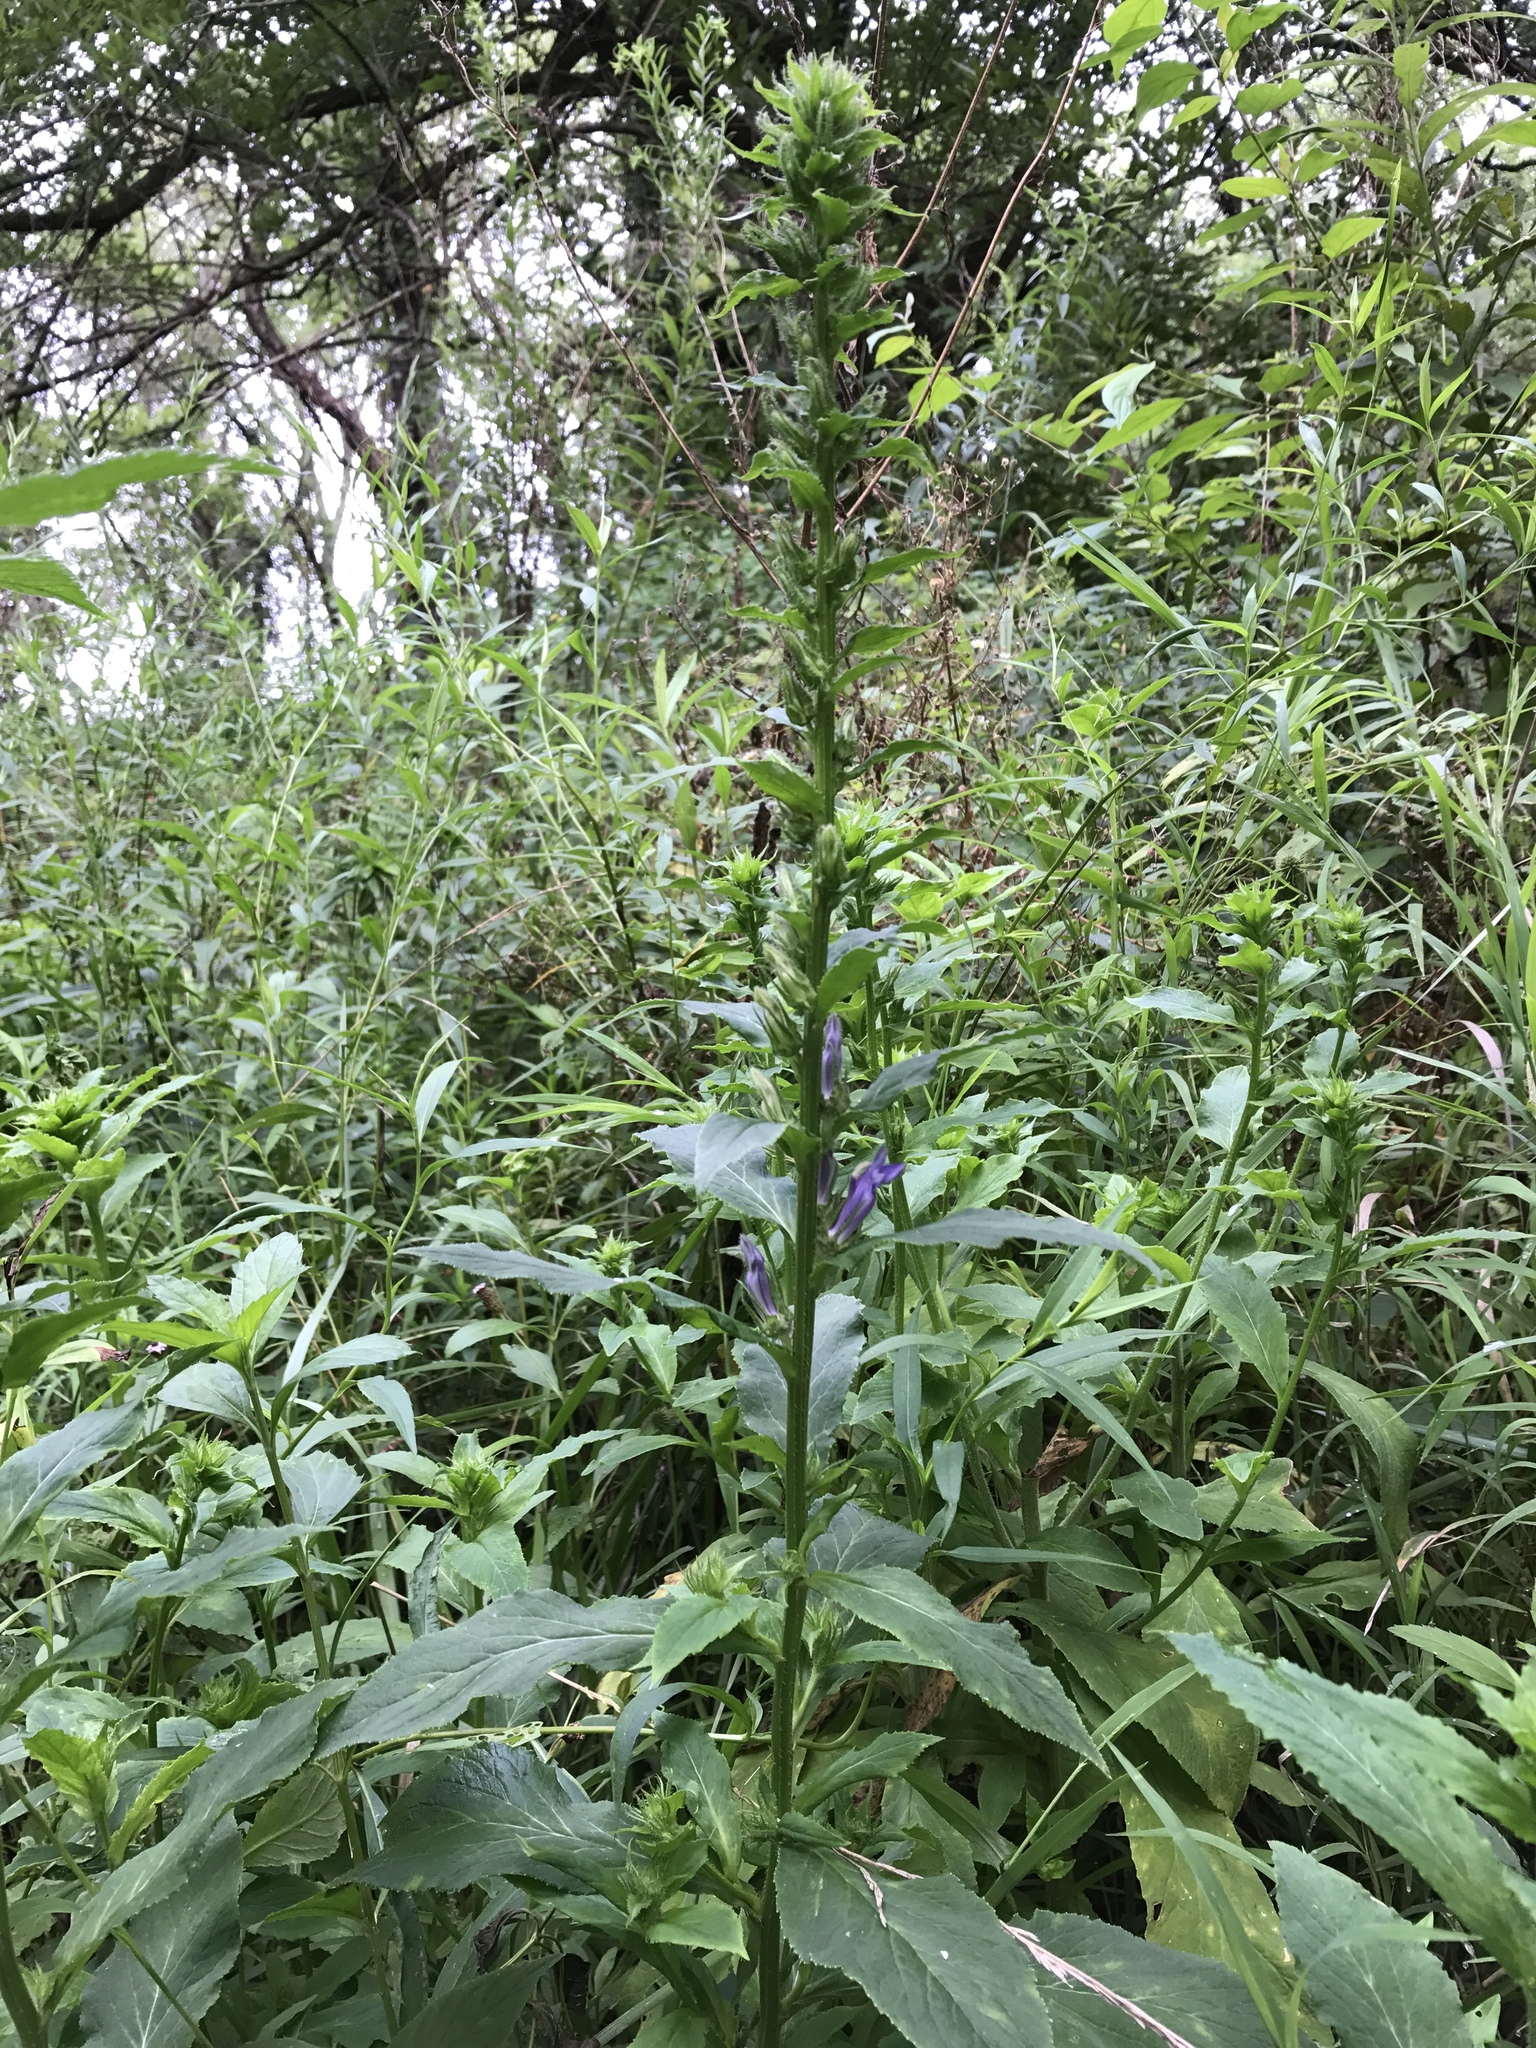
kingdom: Plantae
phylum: Tracheophyta
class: Magnoliopsida
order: Asterales
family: Campanulaceae
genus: Lobelia
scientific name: Lobelia siphilitica
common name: Great lobelia
